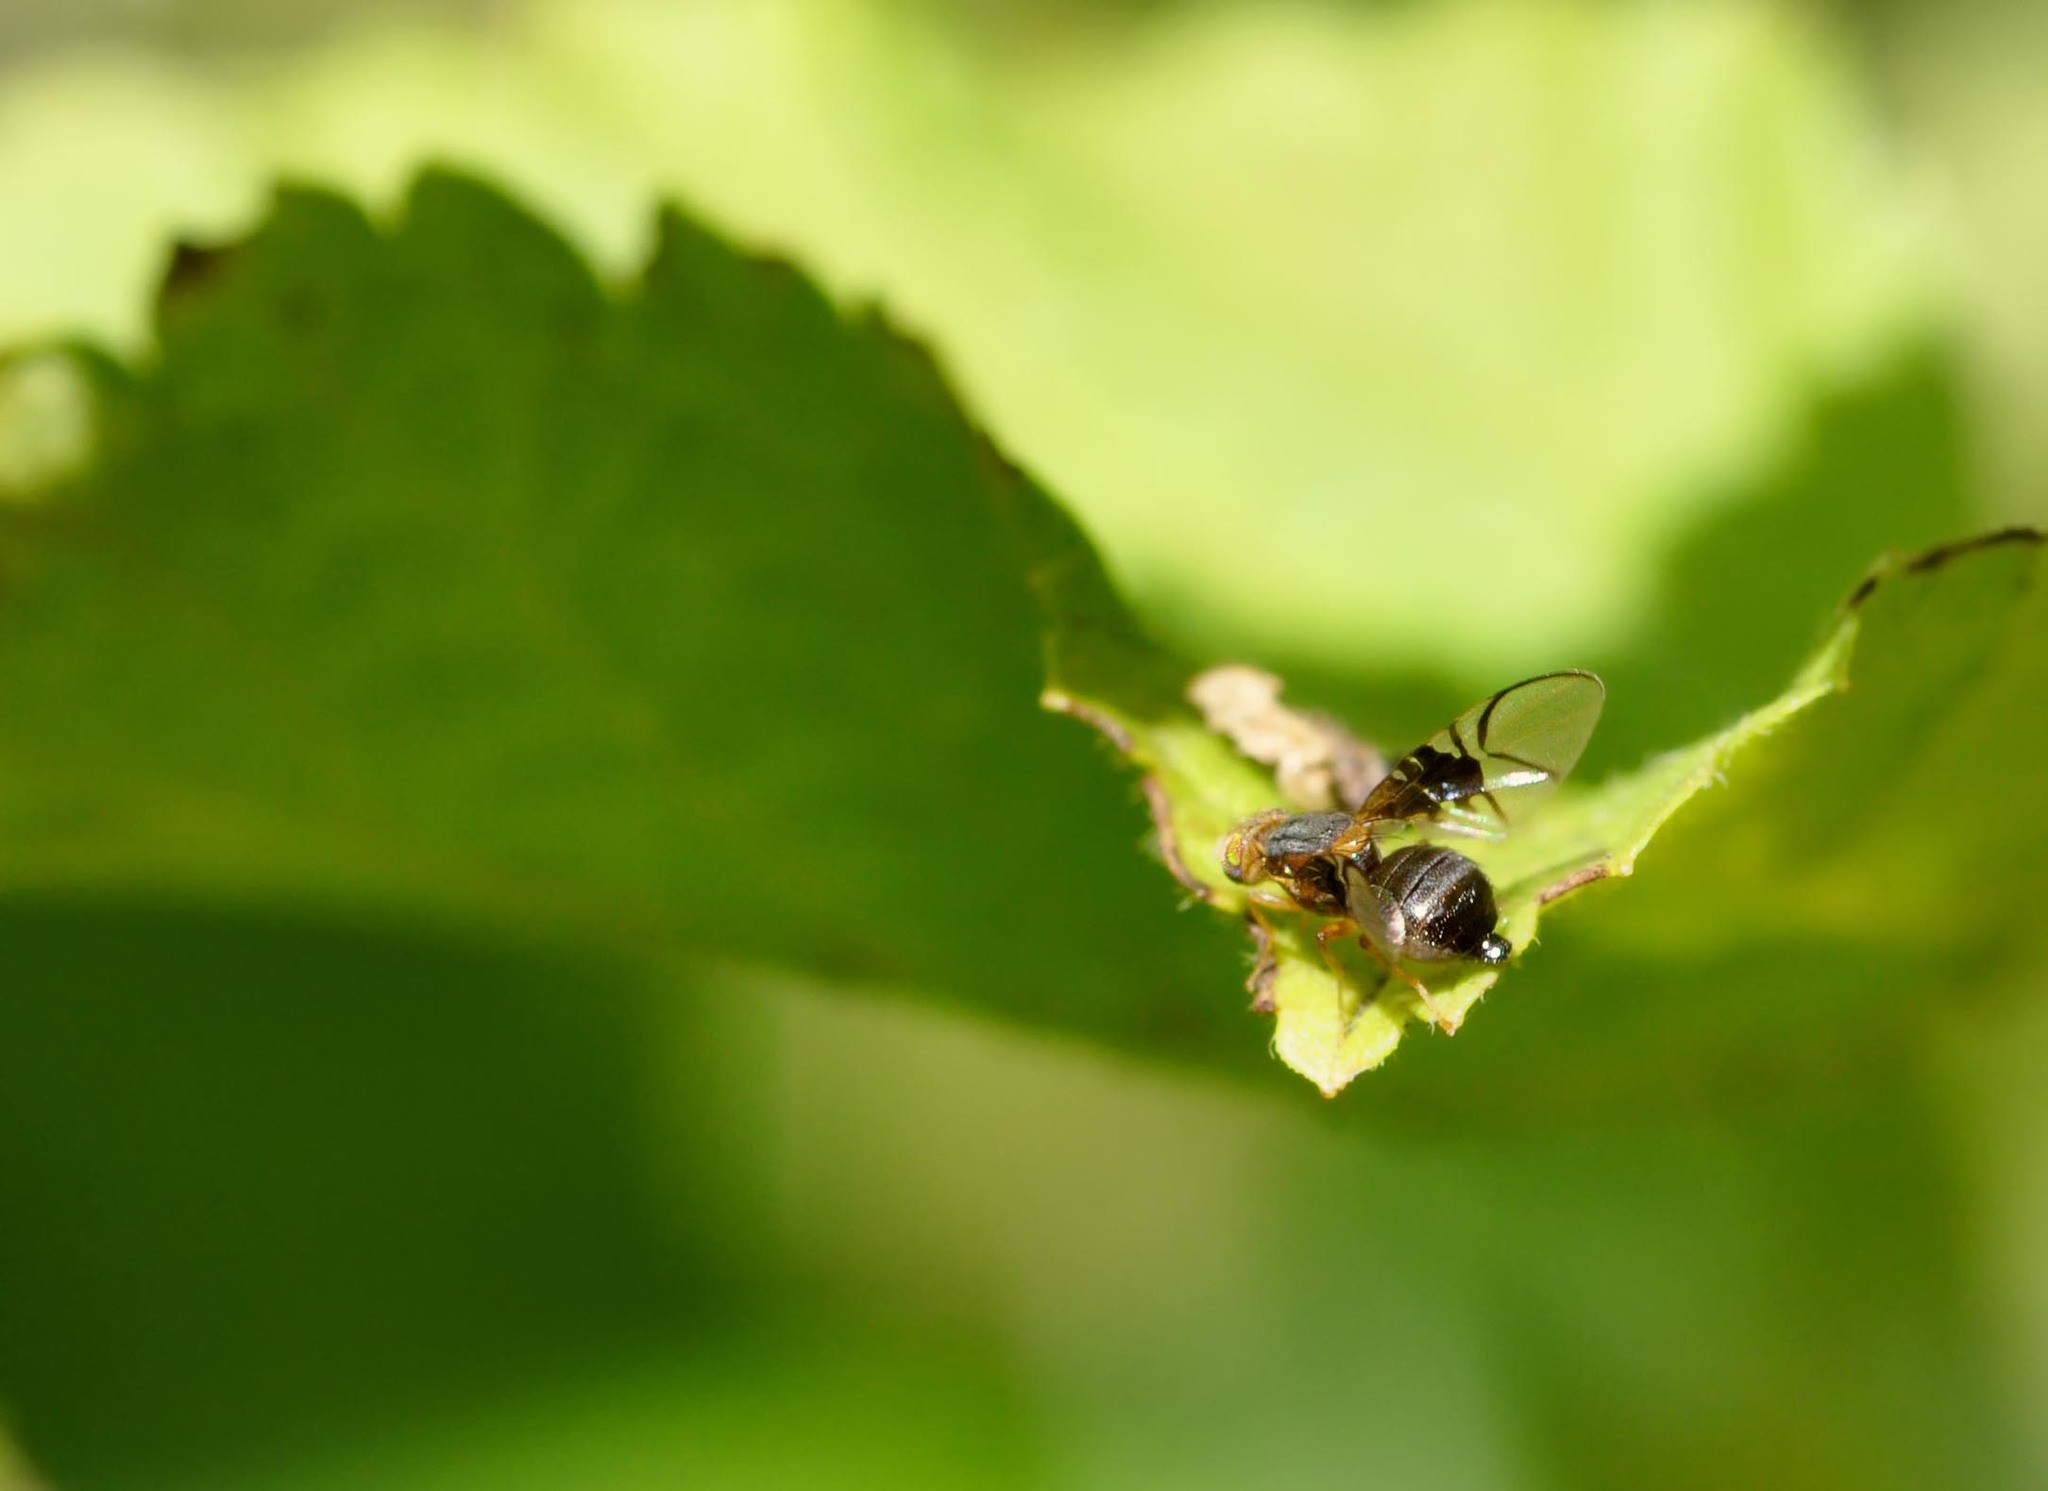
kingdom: Animalia
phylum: Arthropoda
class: Insecta
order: Diptera
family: Tephritidae
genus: Anomoia
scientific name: Anomoia purmunda
